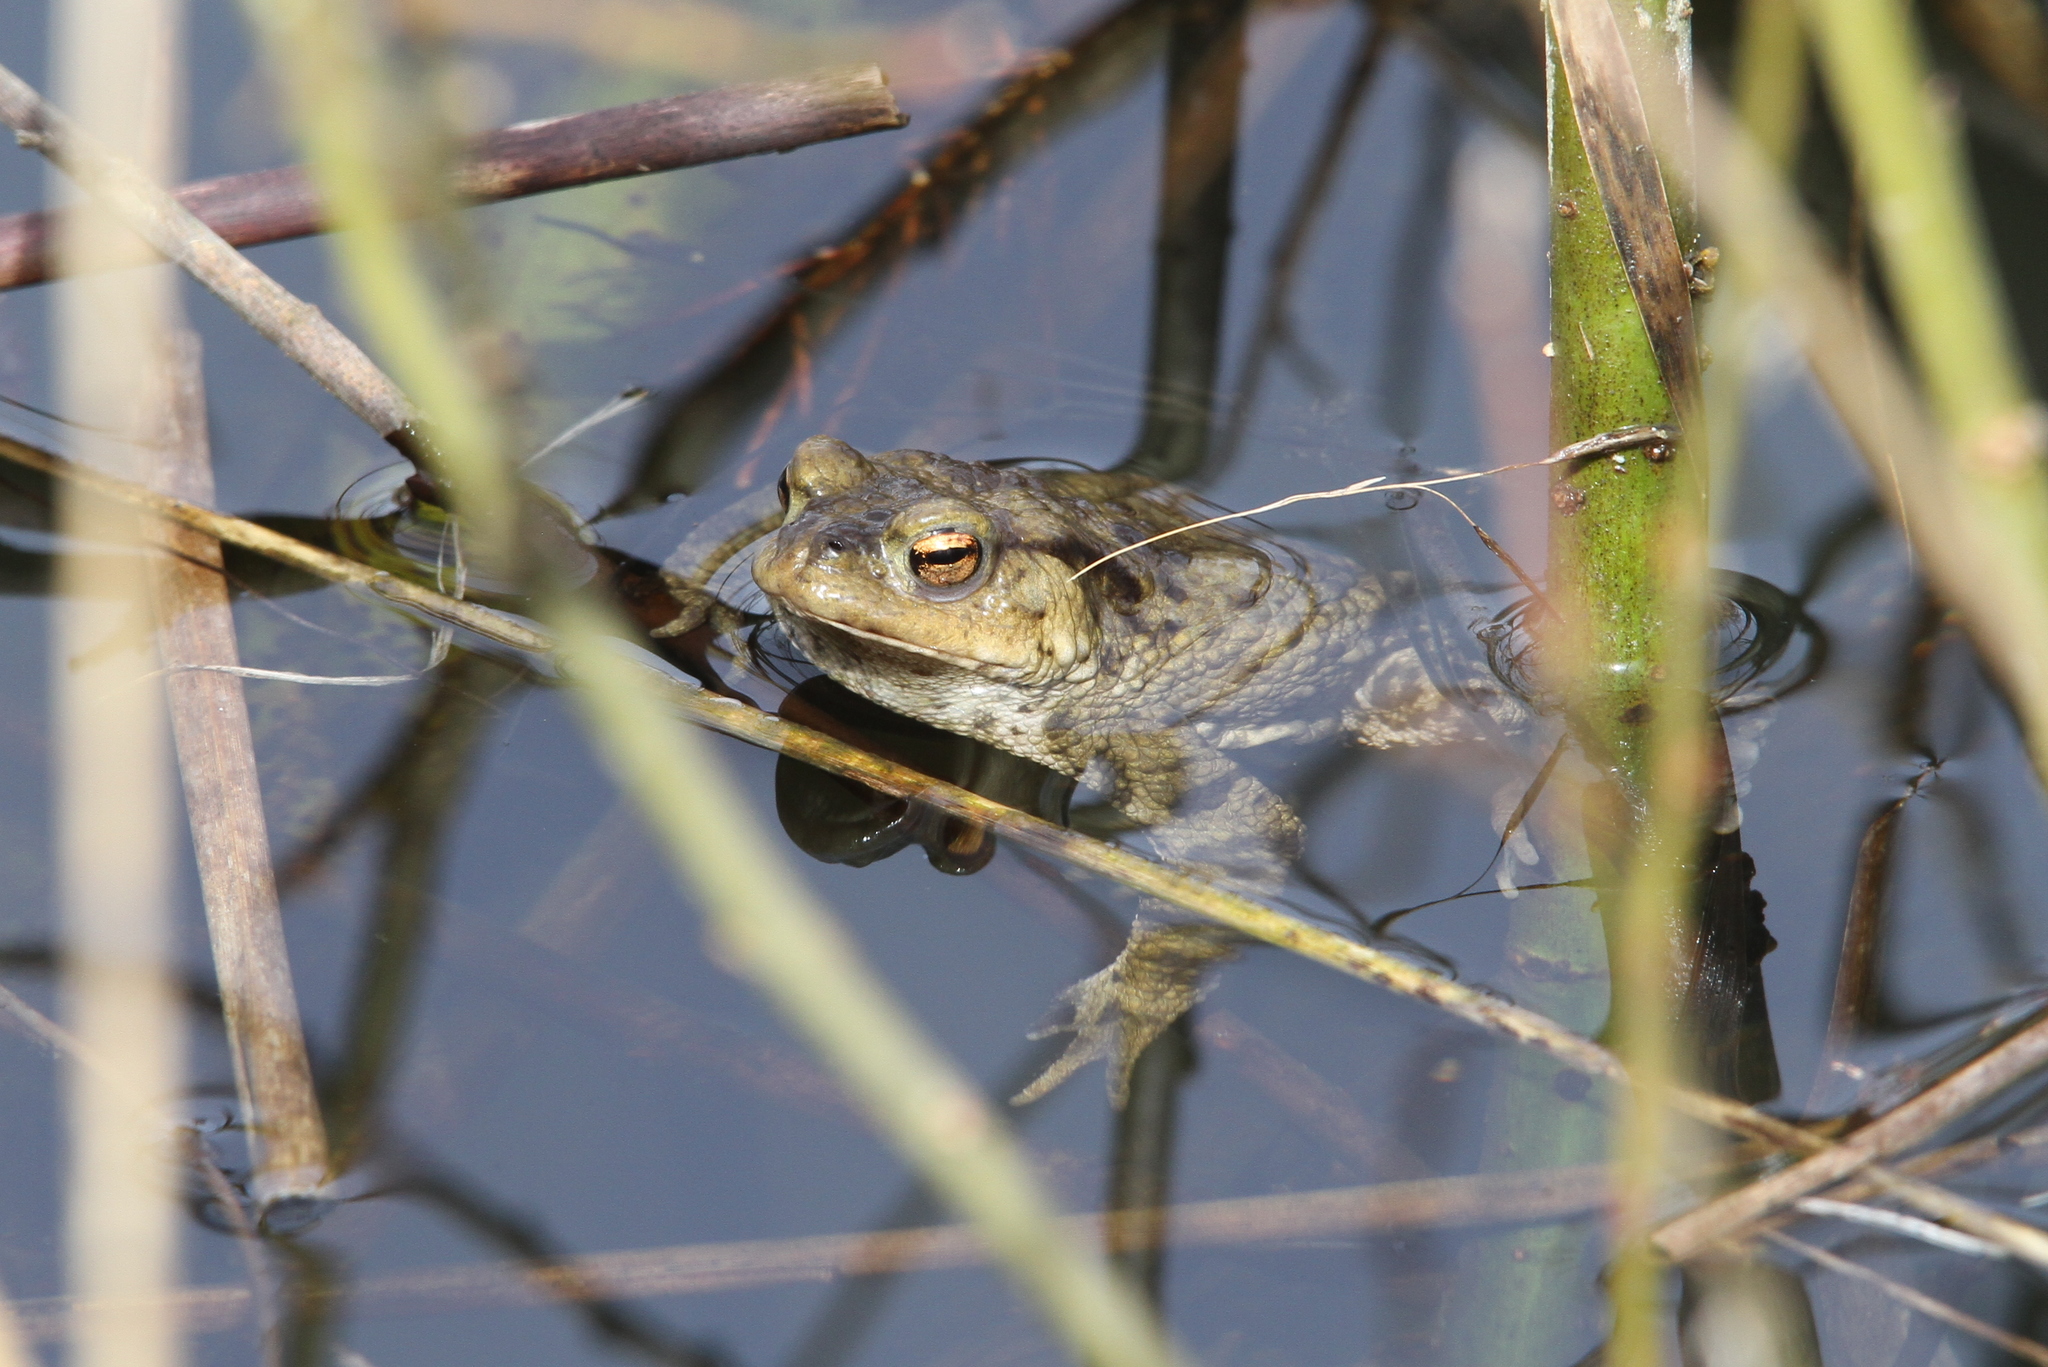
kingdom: Animalia
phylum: Chordata
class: Amphibia
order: Anura
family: Bufonidae
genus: Bufo
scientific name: Bufo bufo
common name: Common toad
